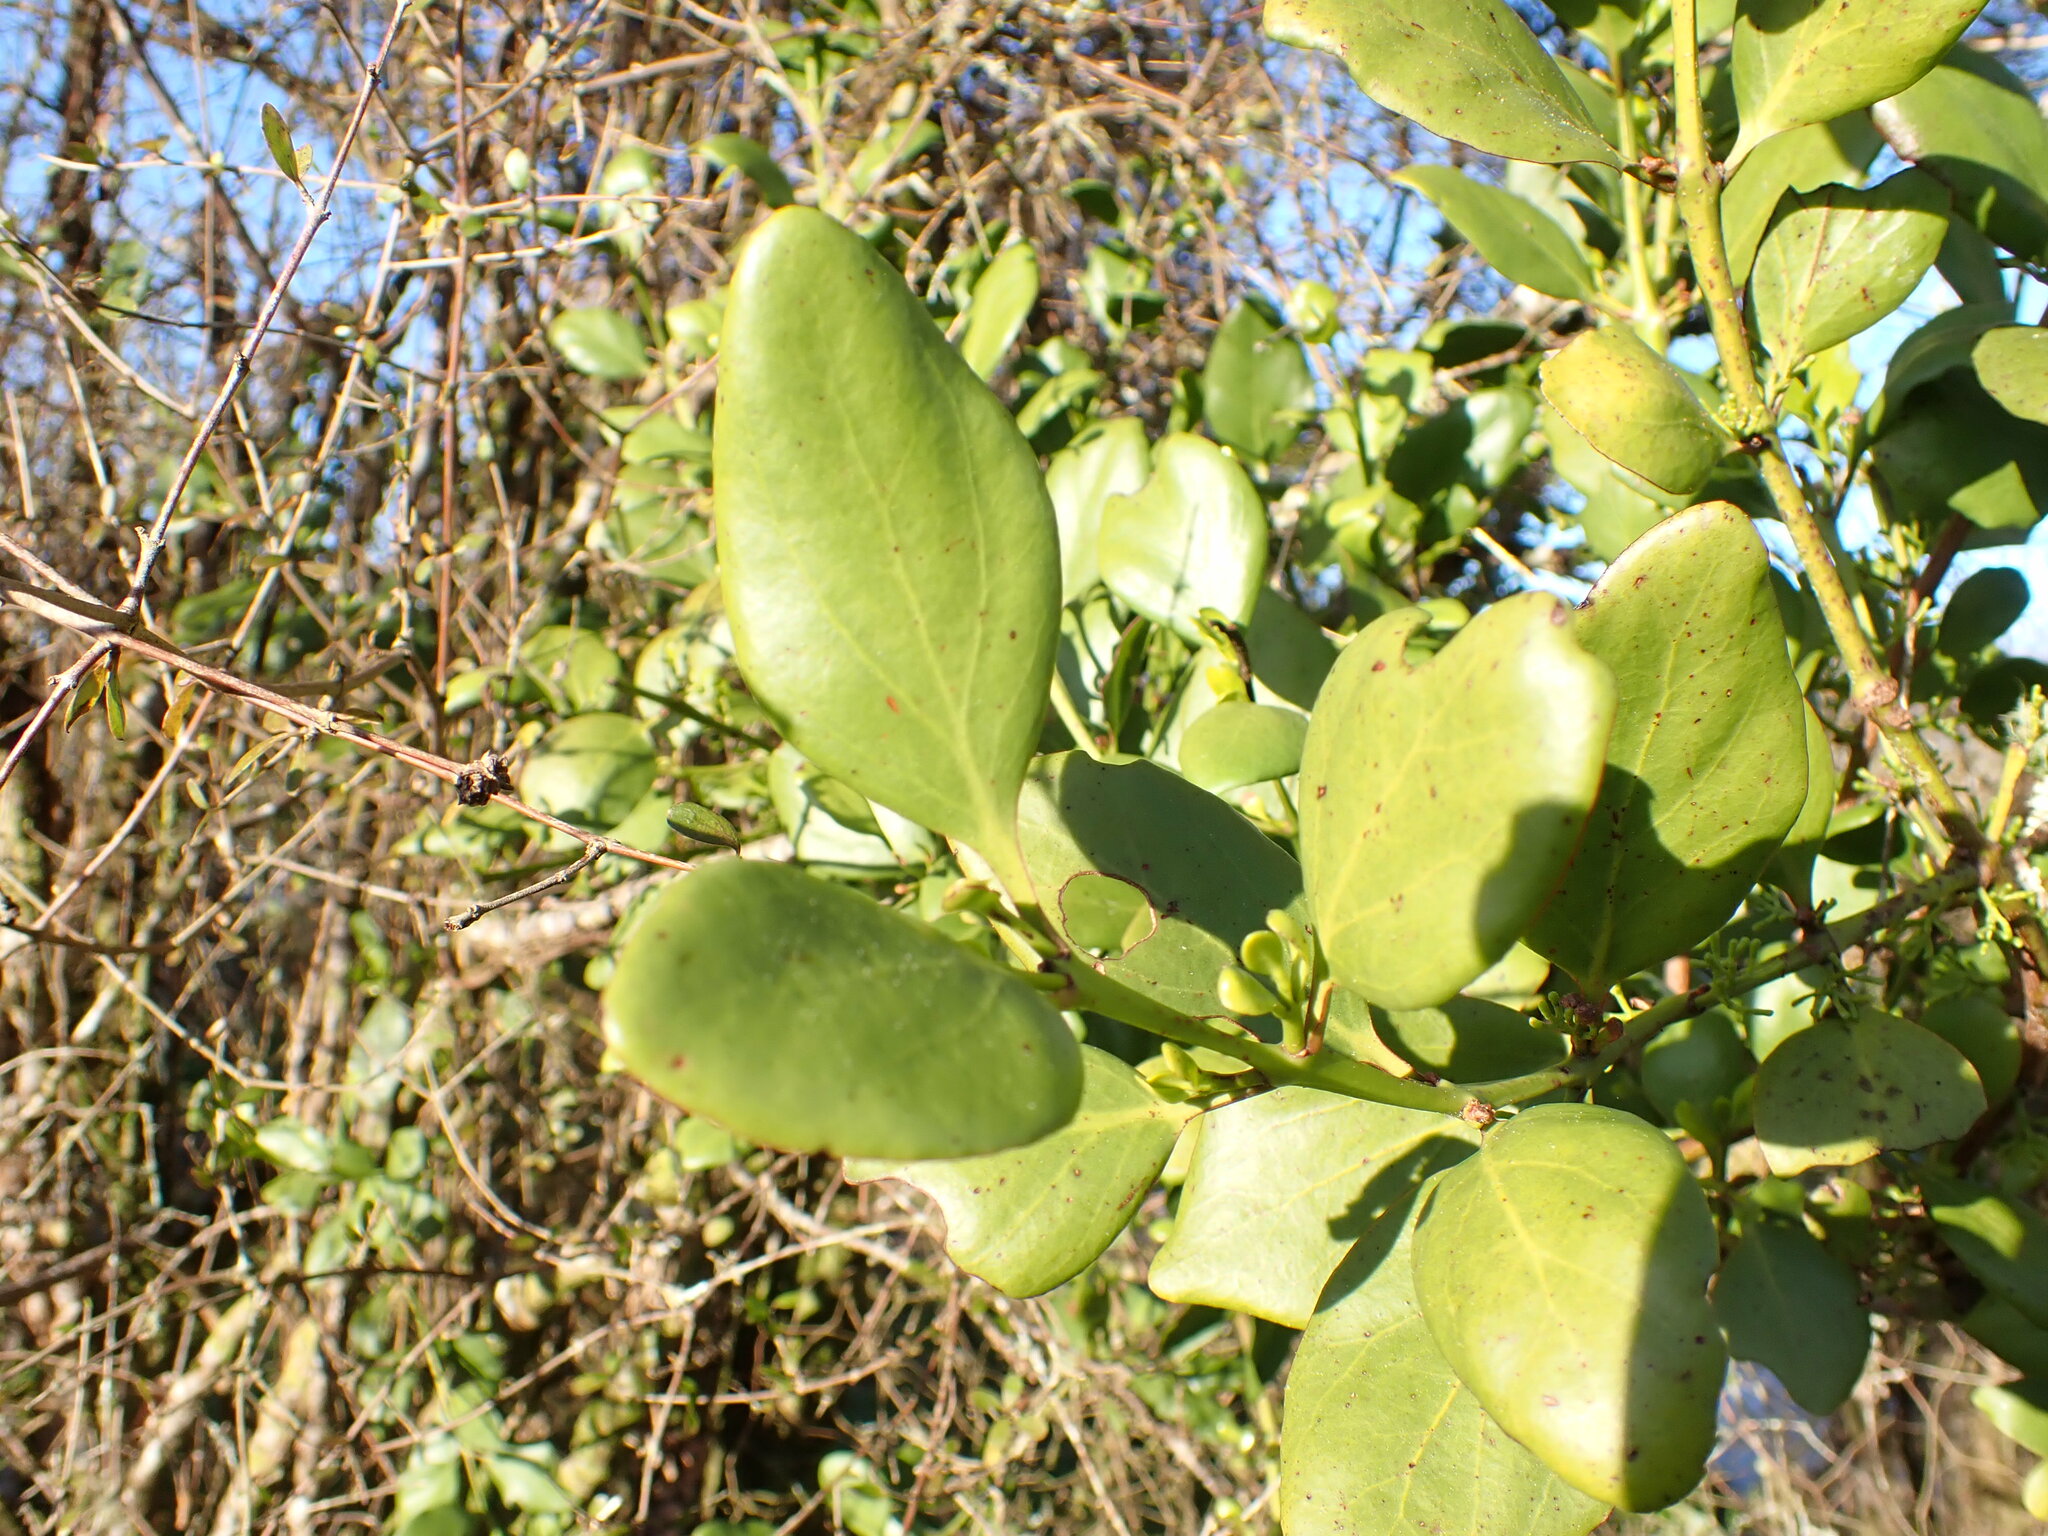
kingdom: Plantae
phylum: Tracheophyta
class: Magnoliopsida
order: Santalales
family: Loranthaceae
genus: Ileostylus
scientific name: Ileostylus micranthus
